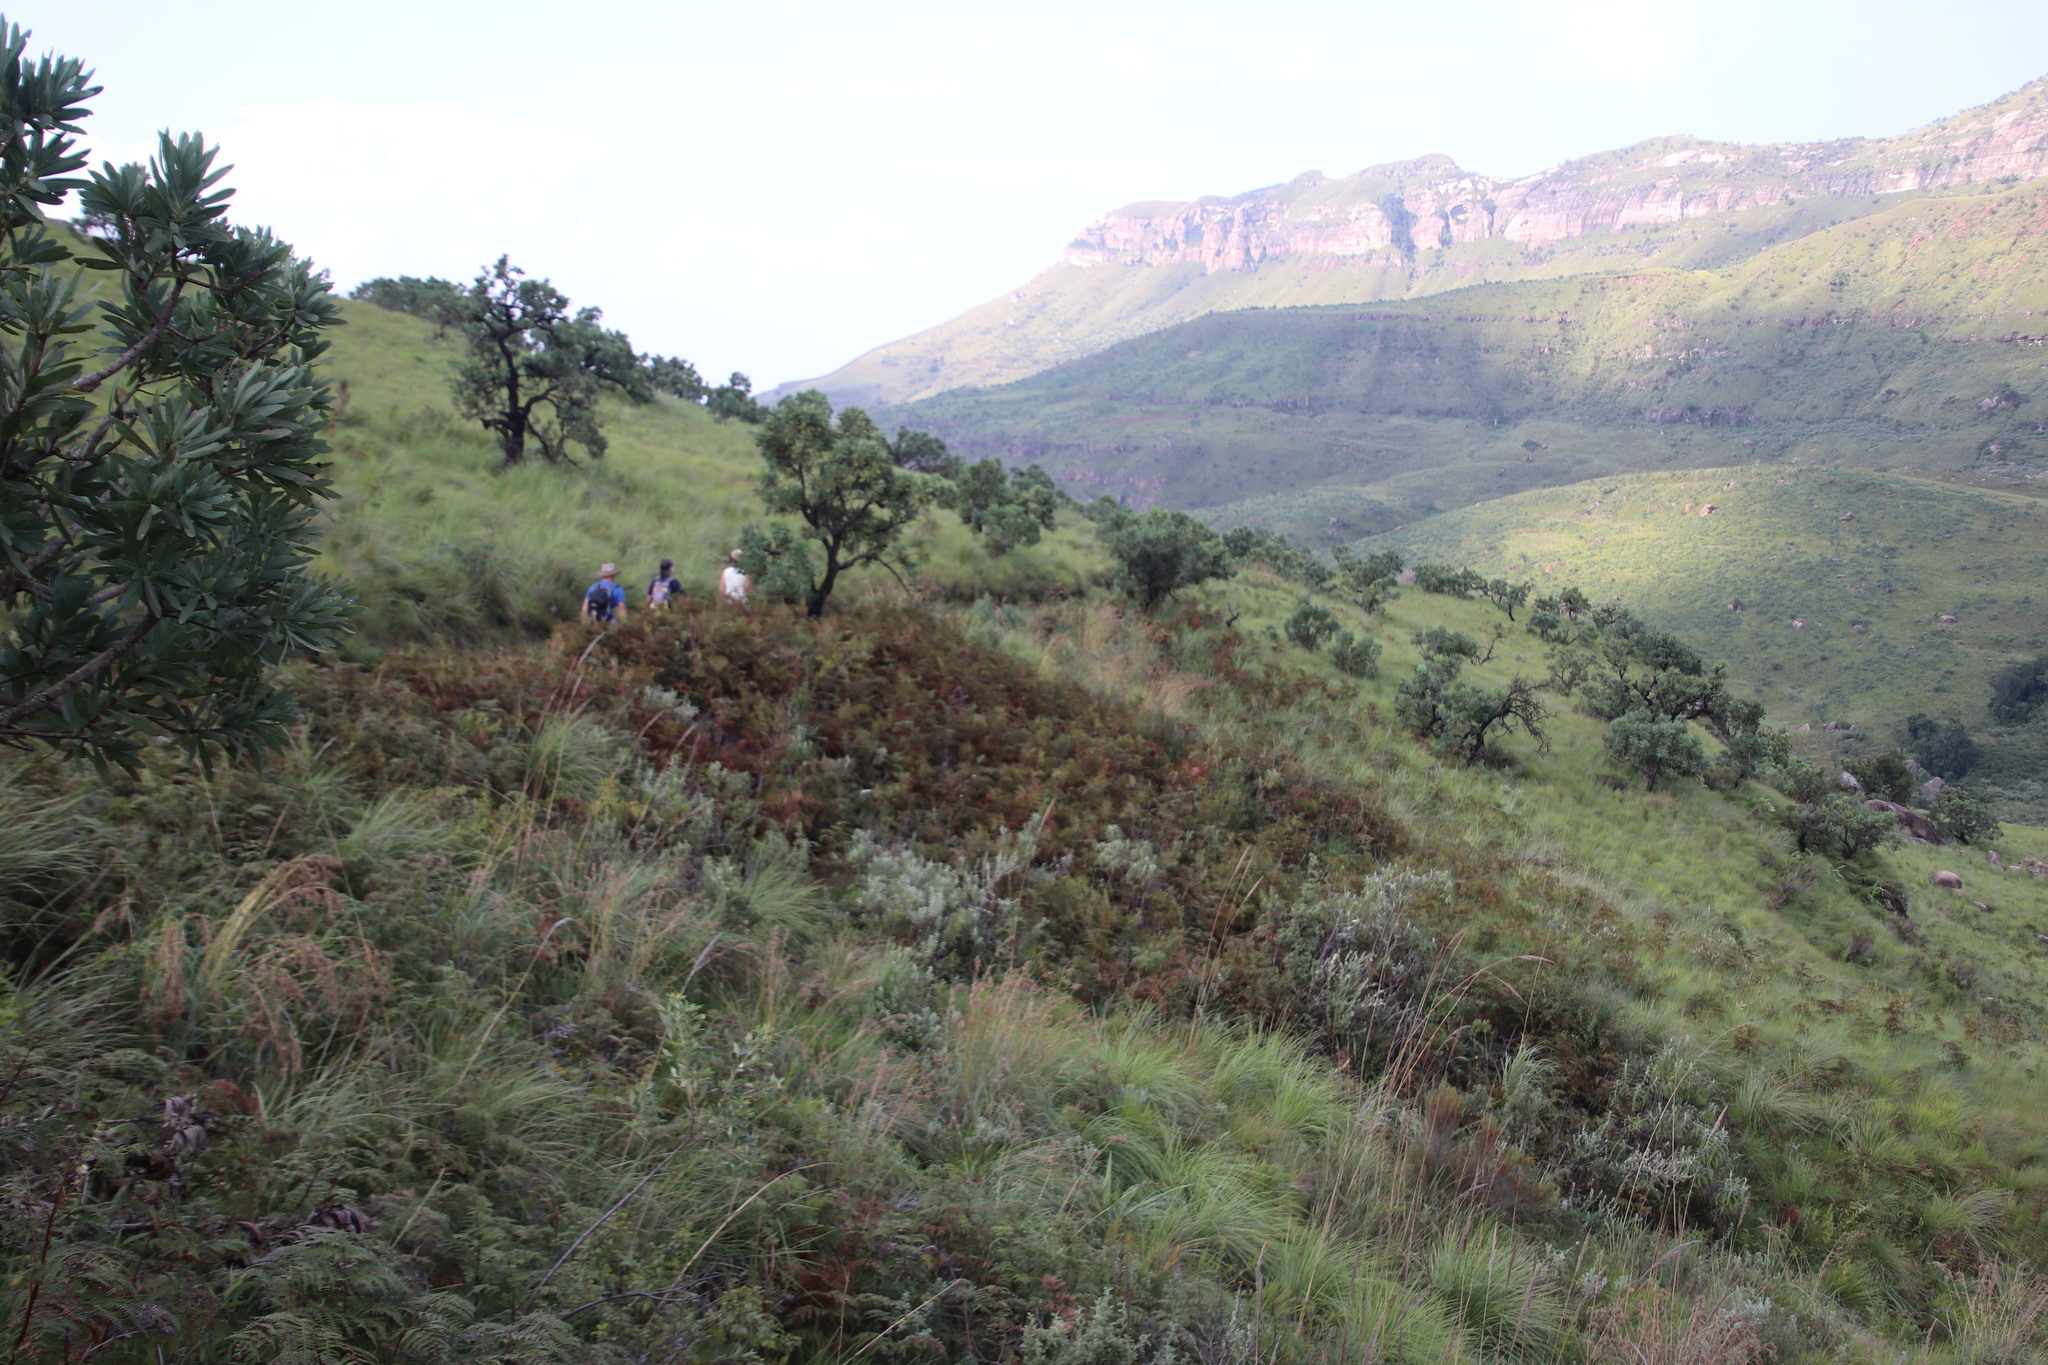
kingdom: Plantae
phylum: Tracheophyta
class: Polypodiopsida
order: Polypodiales
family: Dennstaedtiaceae
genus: Pteridium
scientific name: Pteridium aquilinum
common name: Bracken
